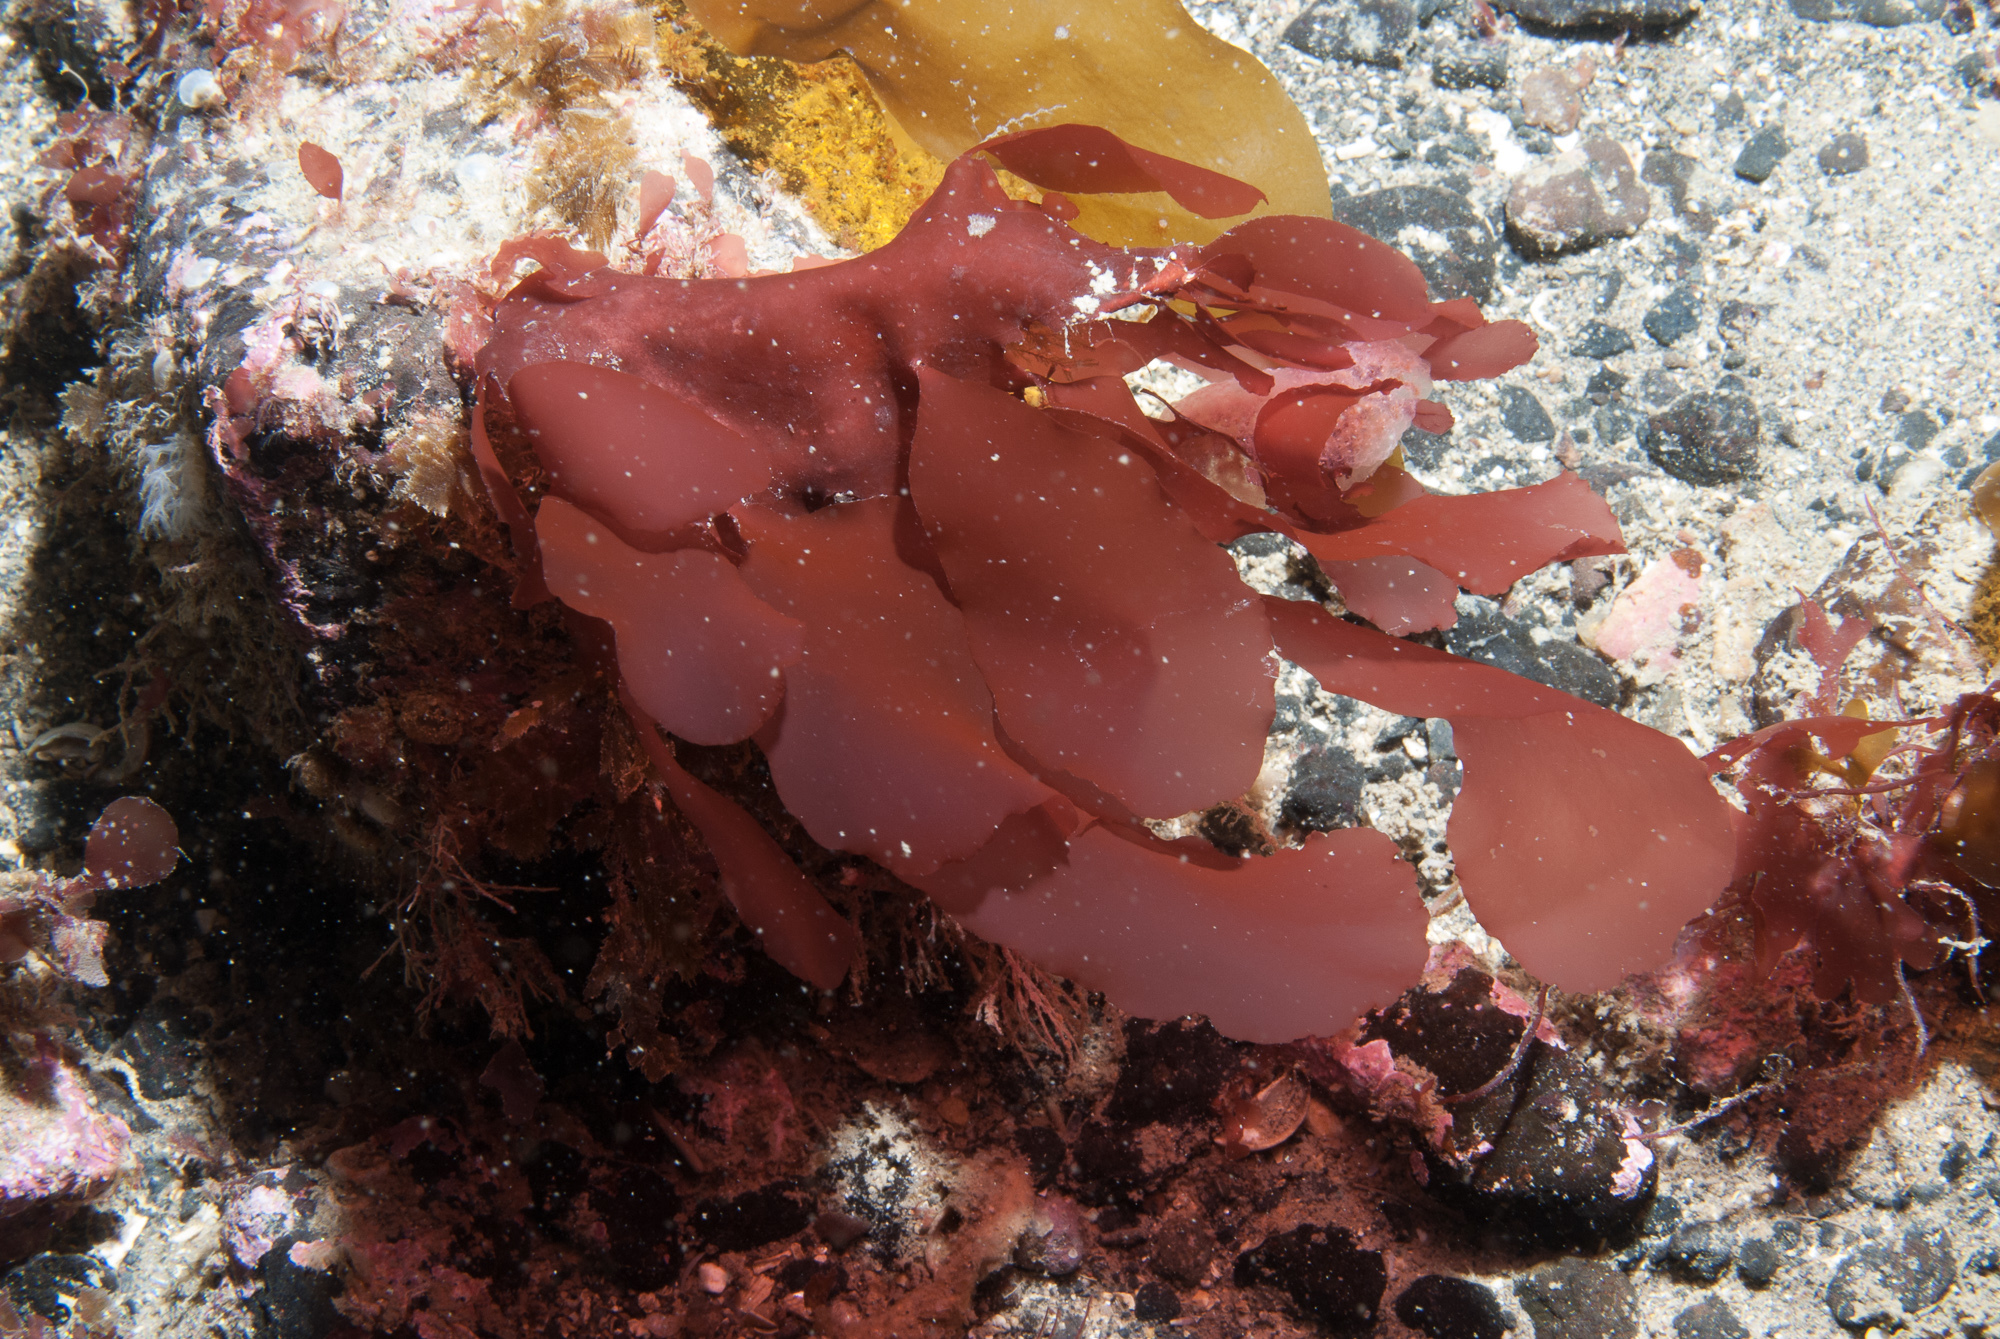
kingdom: Plantae
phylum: Rhodophyta
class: Florideophyceae
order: Gigartinales
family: Kallymeniaceae
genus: Kallymenia
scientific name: Kallymenia reniformis
